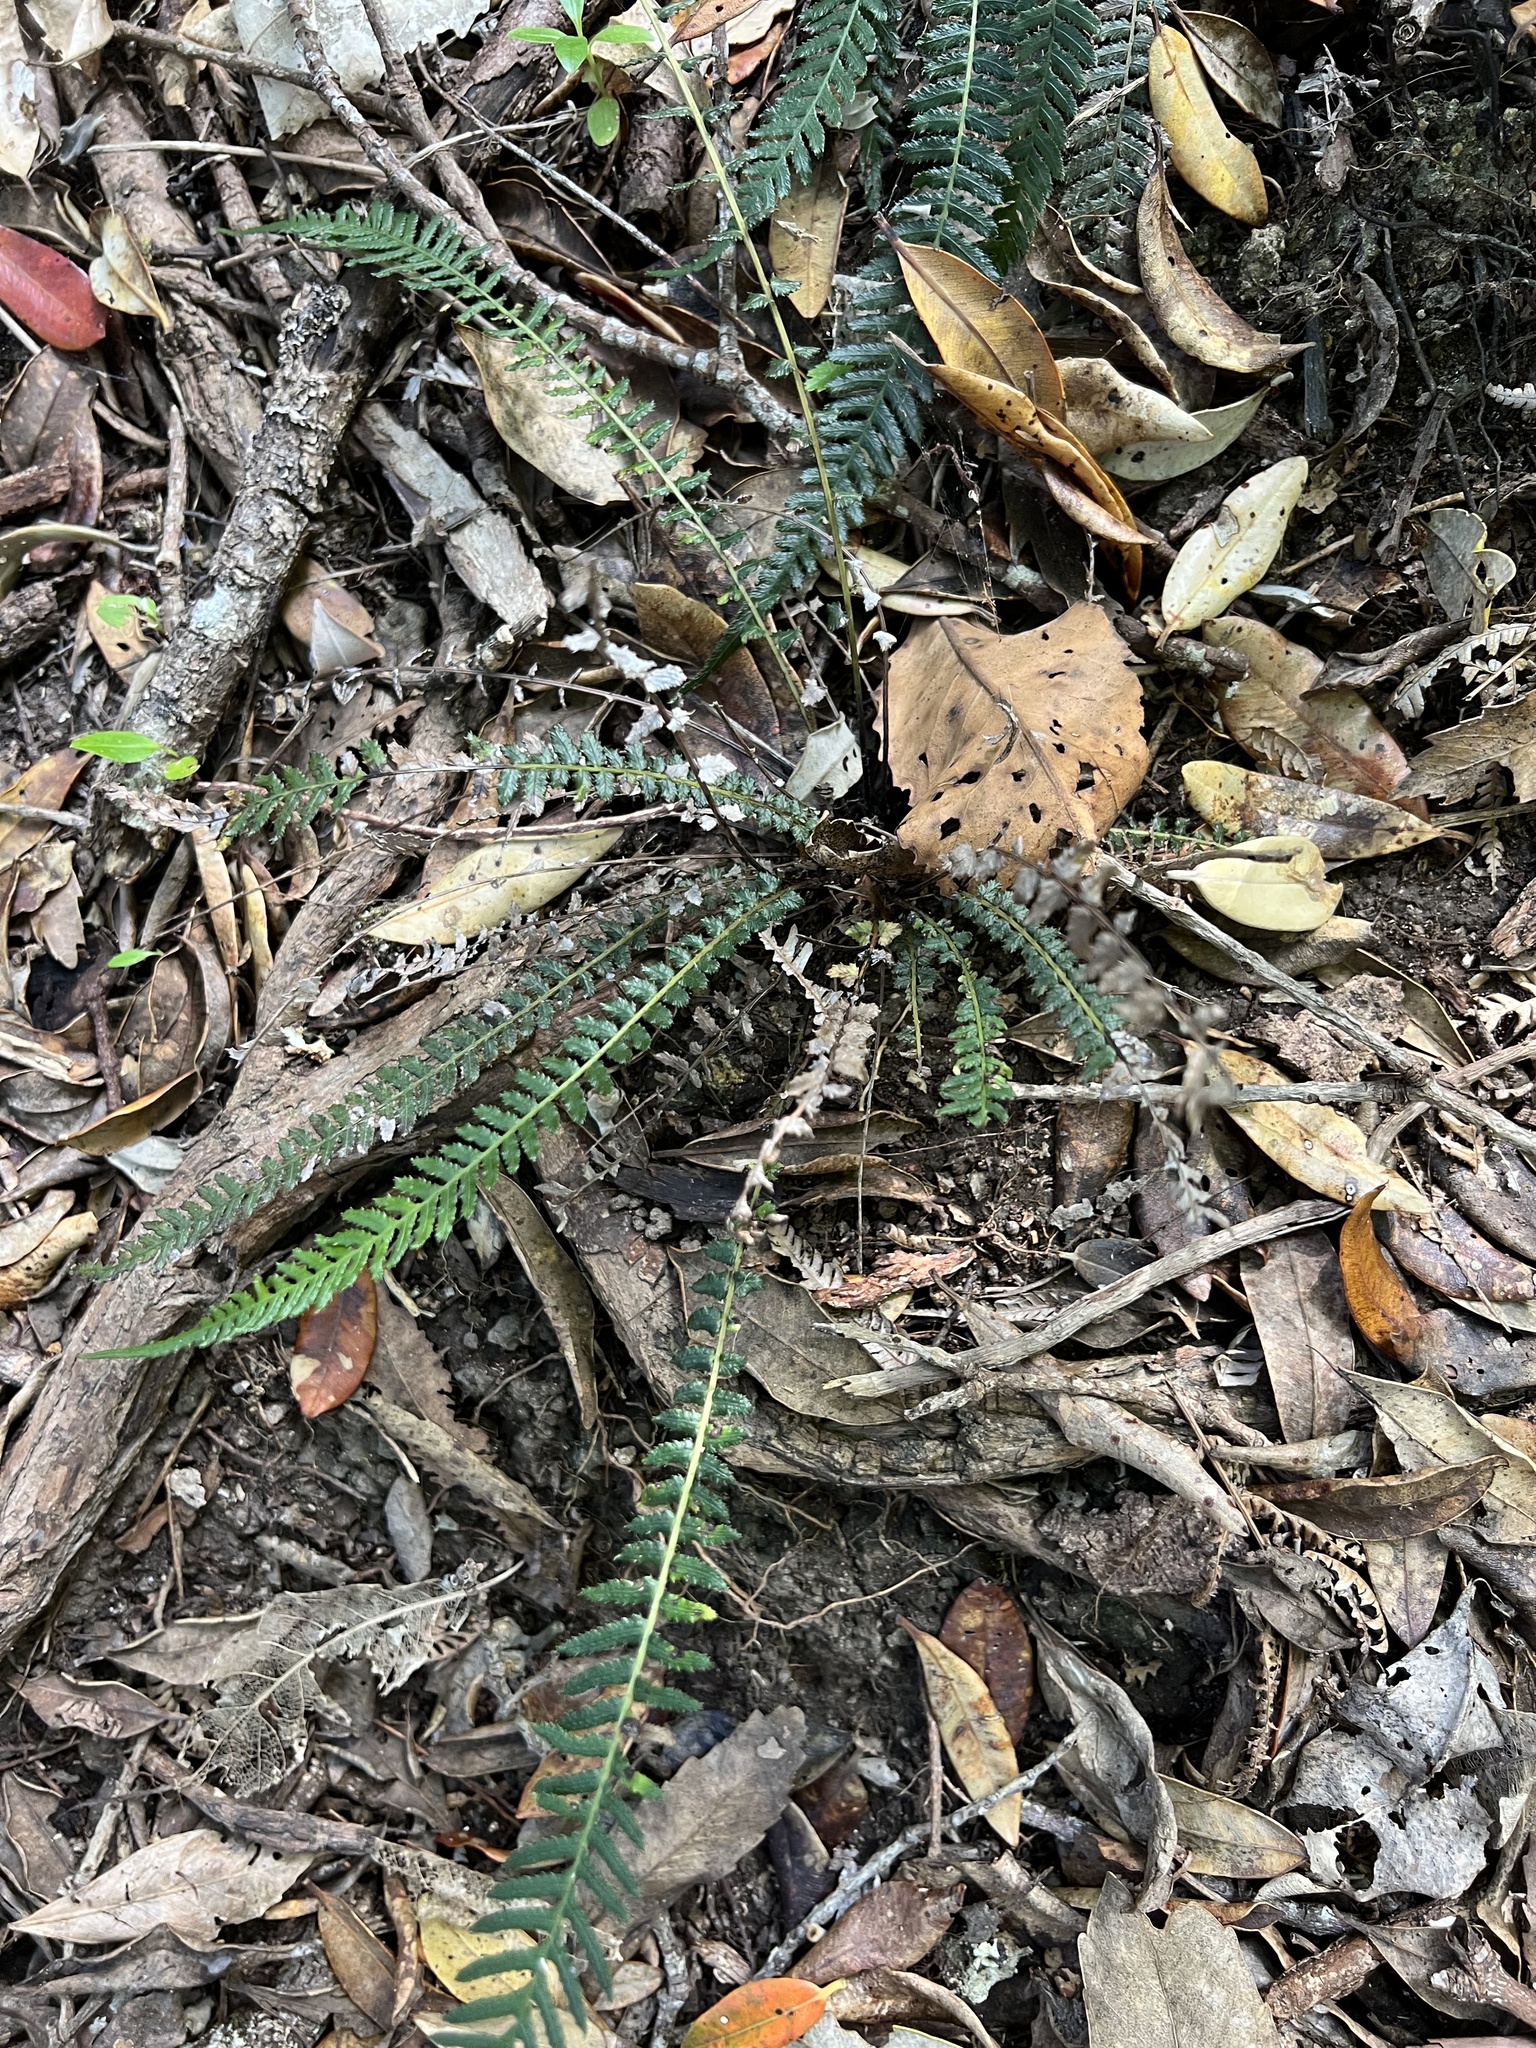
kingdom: Plantae
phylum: Tracheophyta
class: Polypodiopsida
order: Polypodiales
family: Blechnaceae
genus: Doodia
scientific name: Doodia australis
